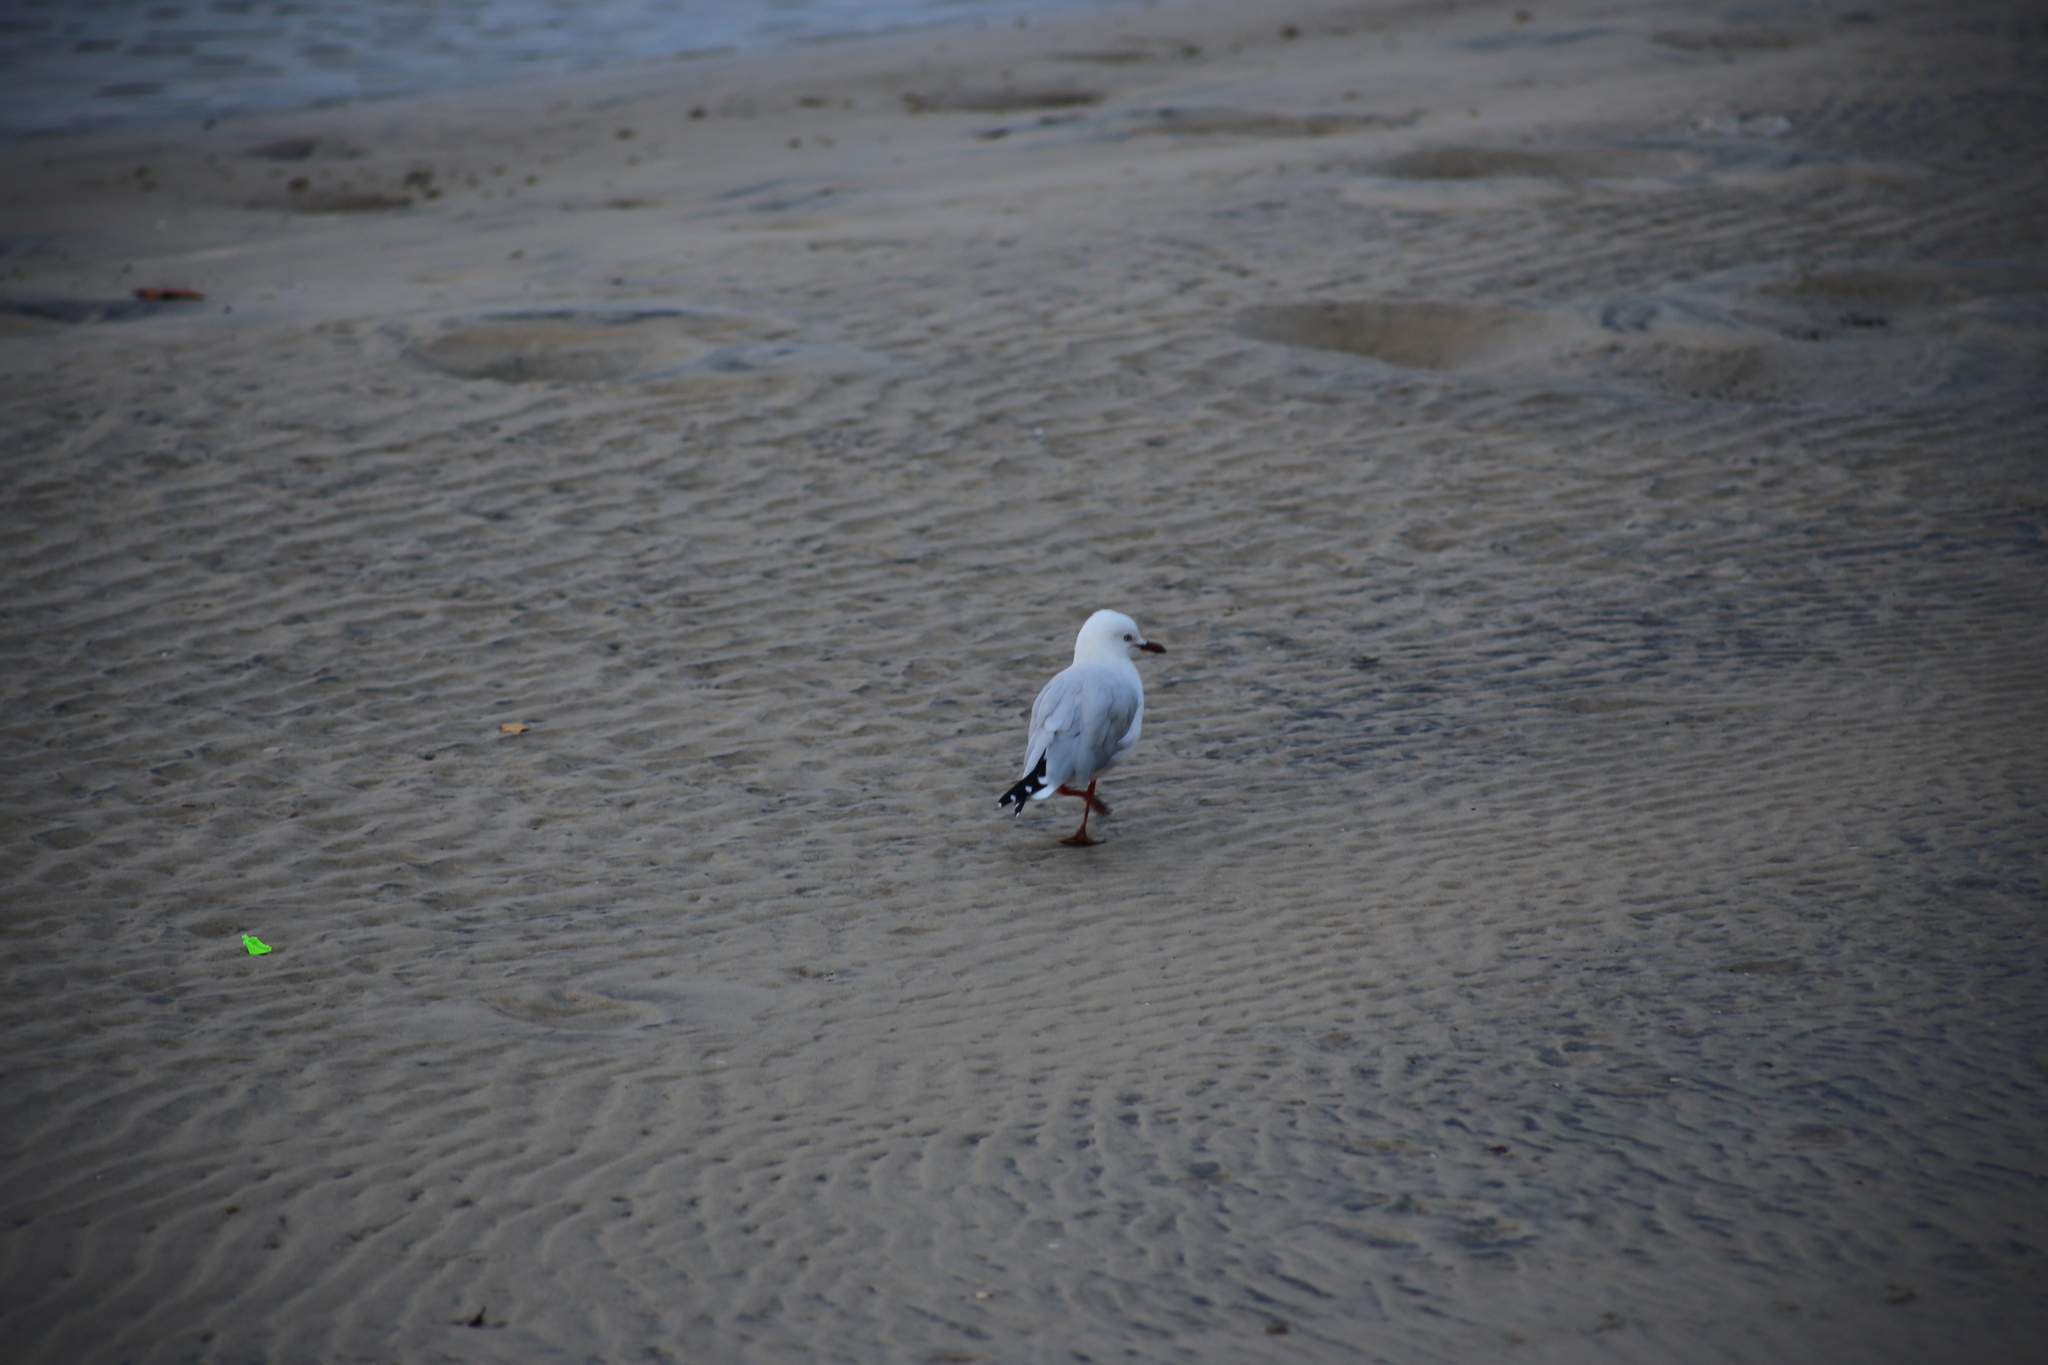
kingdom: Animalia
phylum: Chordata
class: Aves
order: Charadriiformes
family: Laridae
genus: Chroicocephalus
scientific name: Chroicocephalus novaehollandiae
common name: Silver gull
